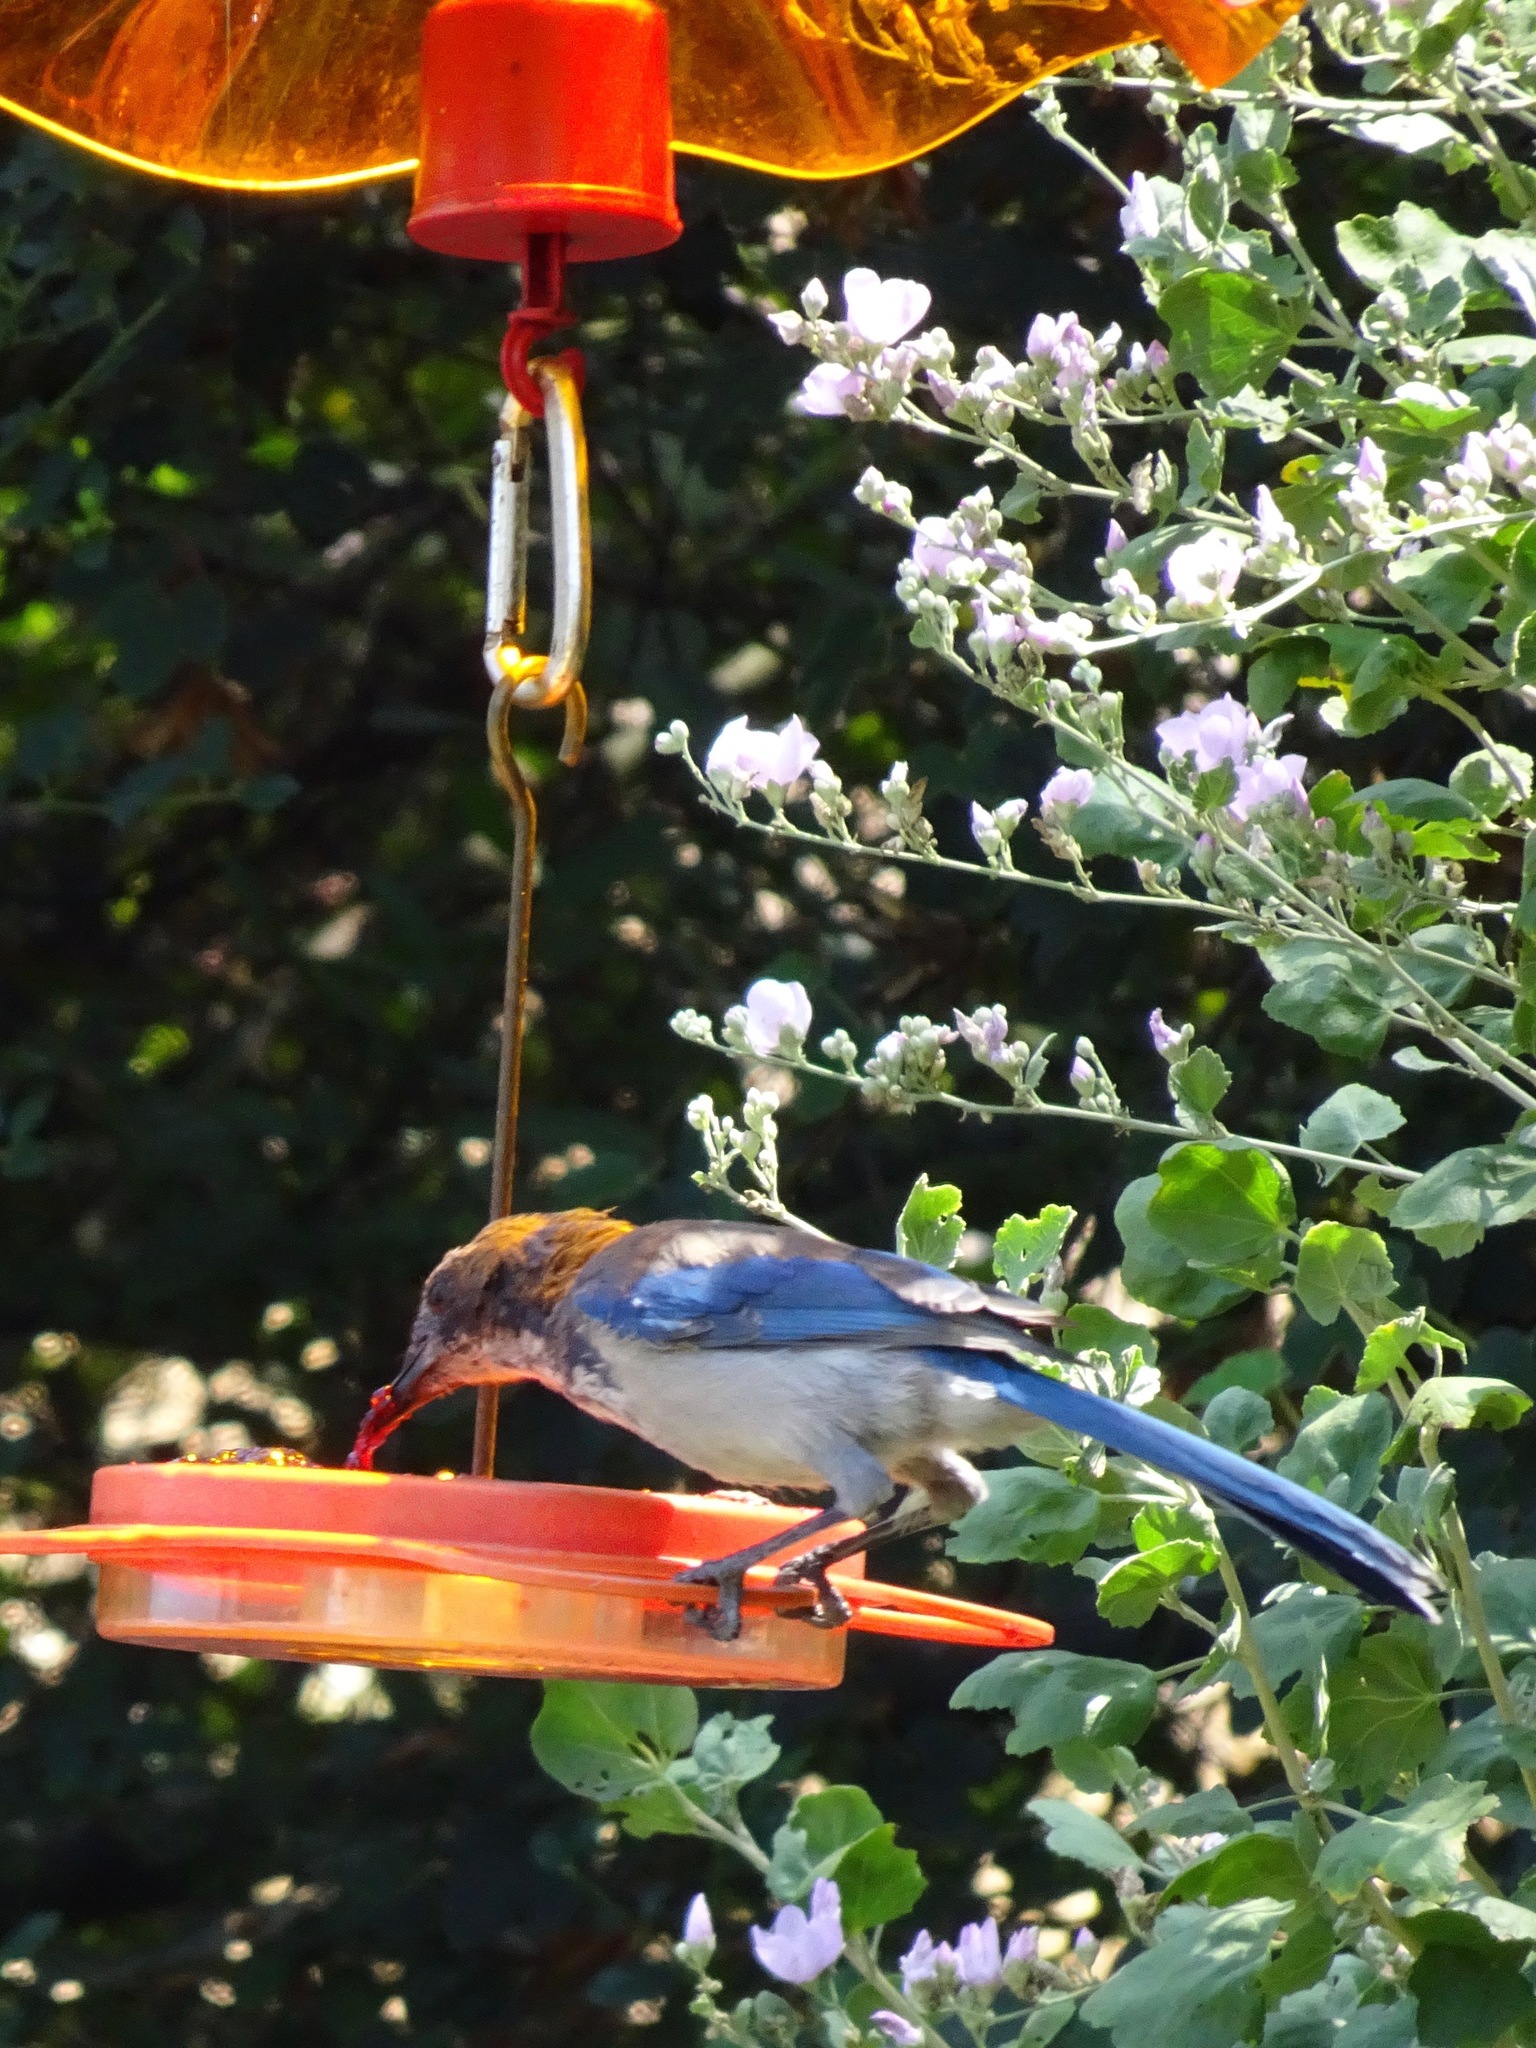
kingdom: Animalia
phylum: Chordata
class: Aves
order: Passeriformes
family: Corvidae
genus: Aphelocoma
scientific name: Aphelocoma californica
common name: California scrub-jay
